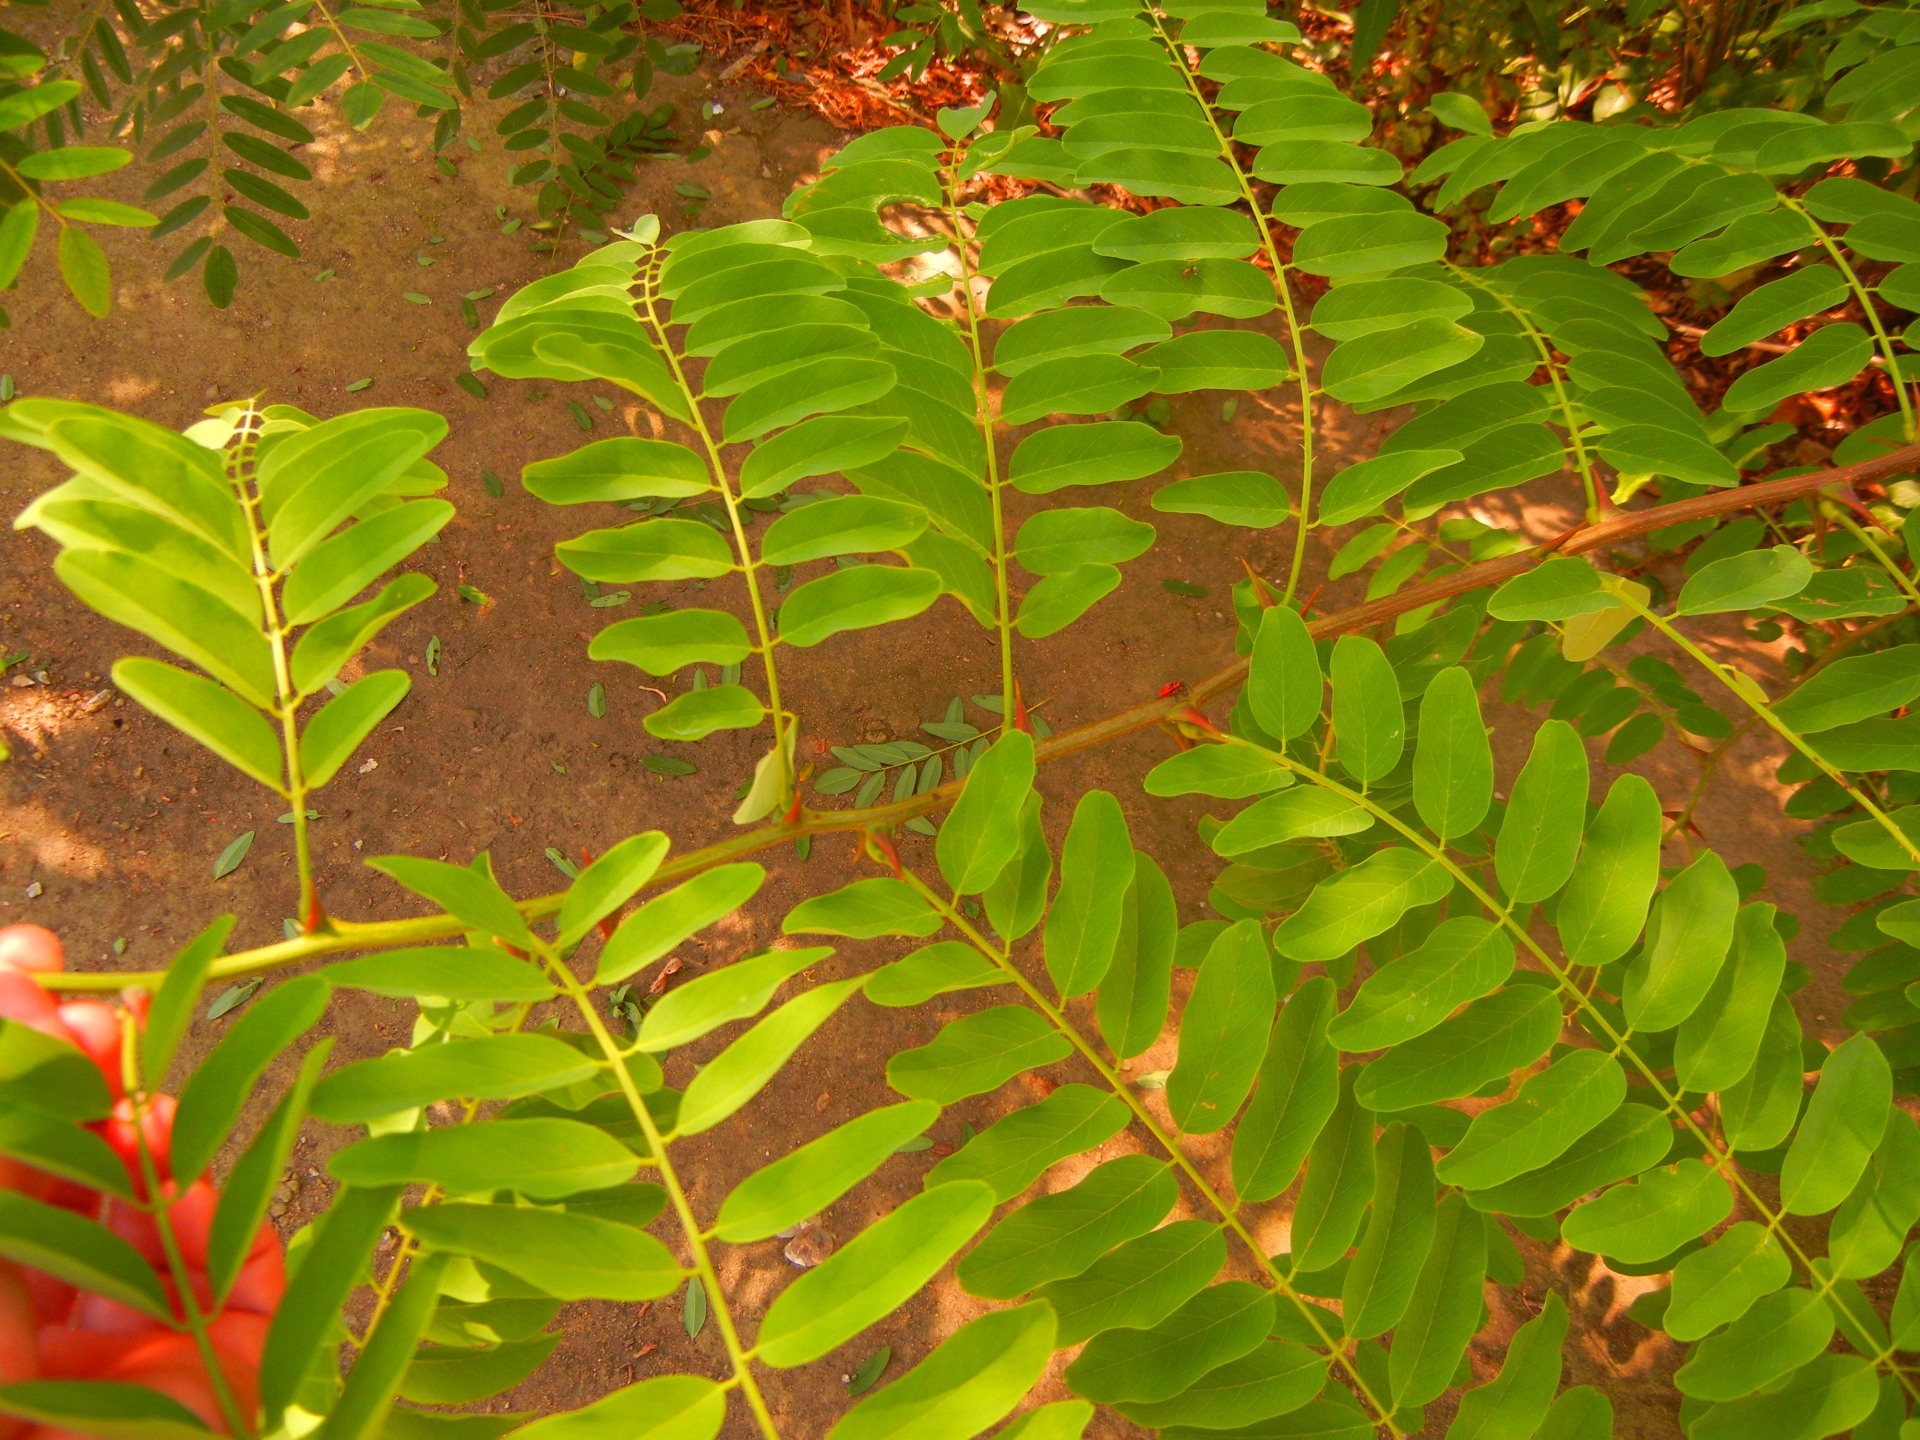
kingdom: Plantae
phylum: Tracheophyta
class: Magnoliopsida
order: Fabales
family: Fabaceae
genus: Robinia
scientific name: Robinia pseudoacacia
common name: Black locust
